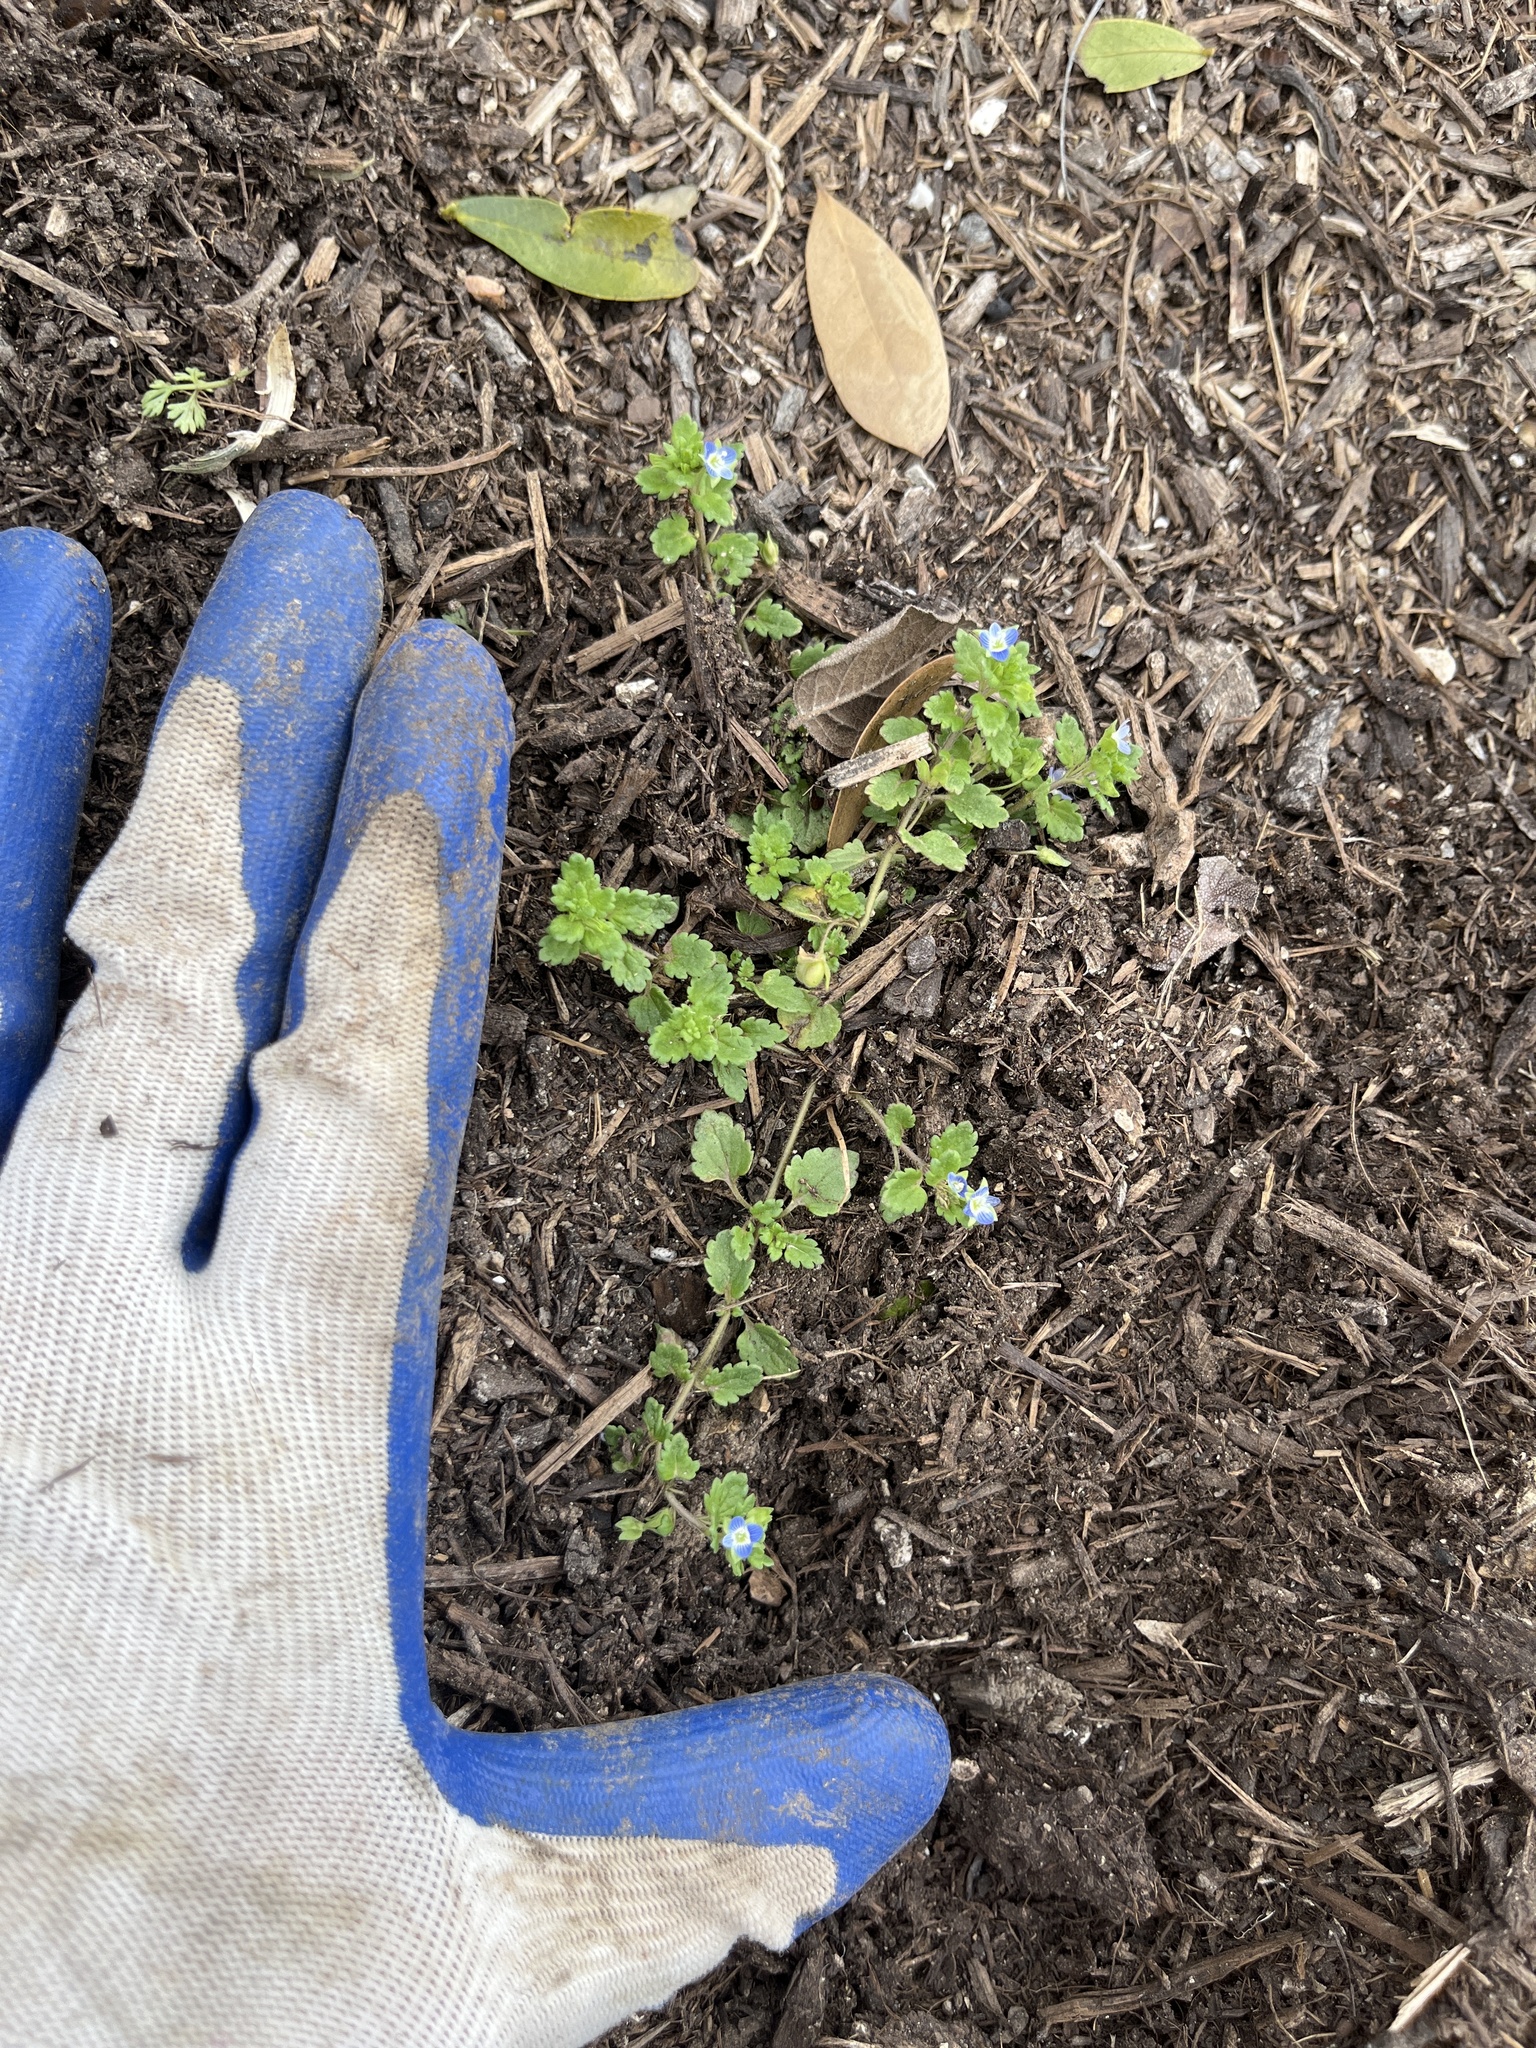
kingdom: Plantae
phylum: Tracheophyta
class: Magnoliopsida
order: Lamiales
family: Plantaginaceae
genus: Veronica
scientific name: Veronica polita
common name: Grey field-speedwell
